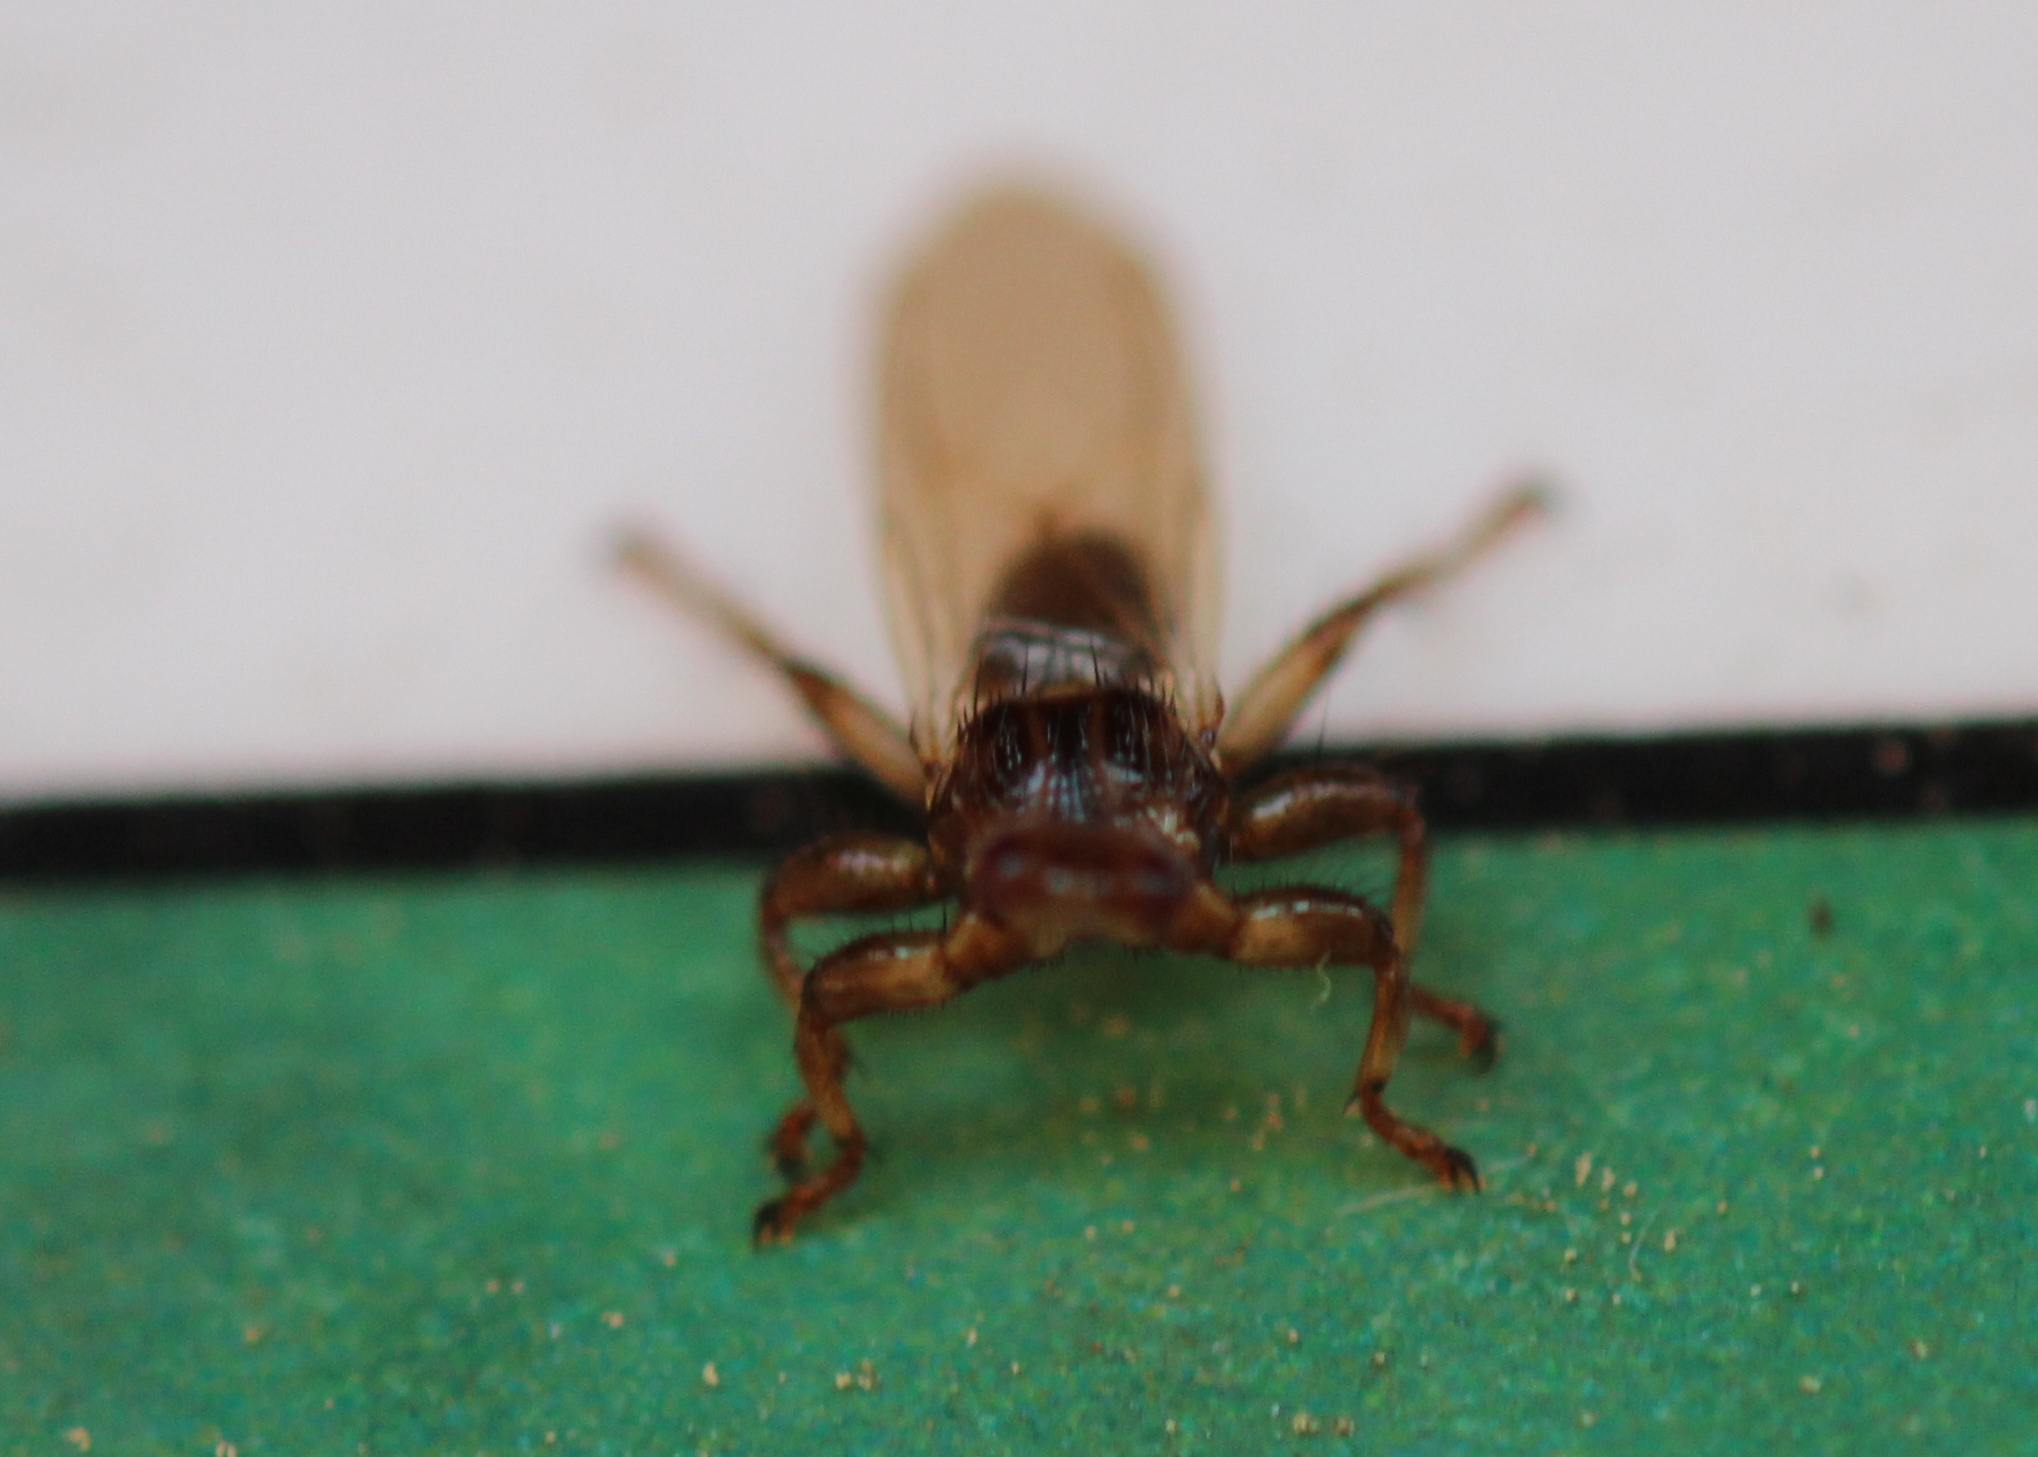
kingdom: Animalia
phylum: Arthropoda
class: Insecta
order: Diptera
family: Hippoboscidae
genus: Lipoptena
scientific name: Lipoptena cervi
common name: Deer ked
